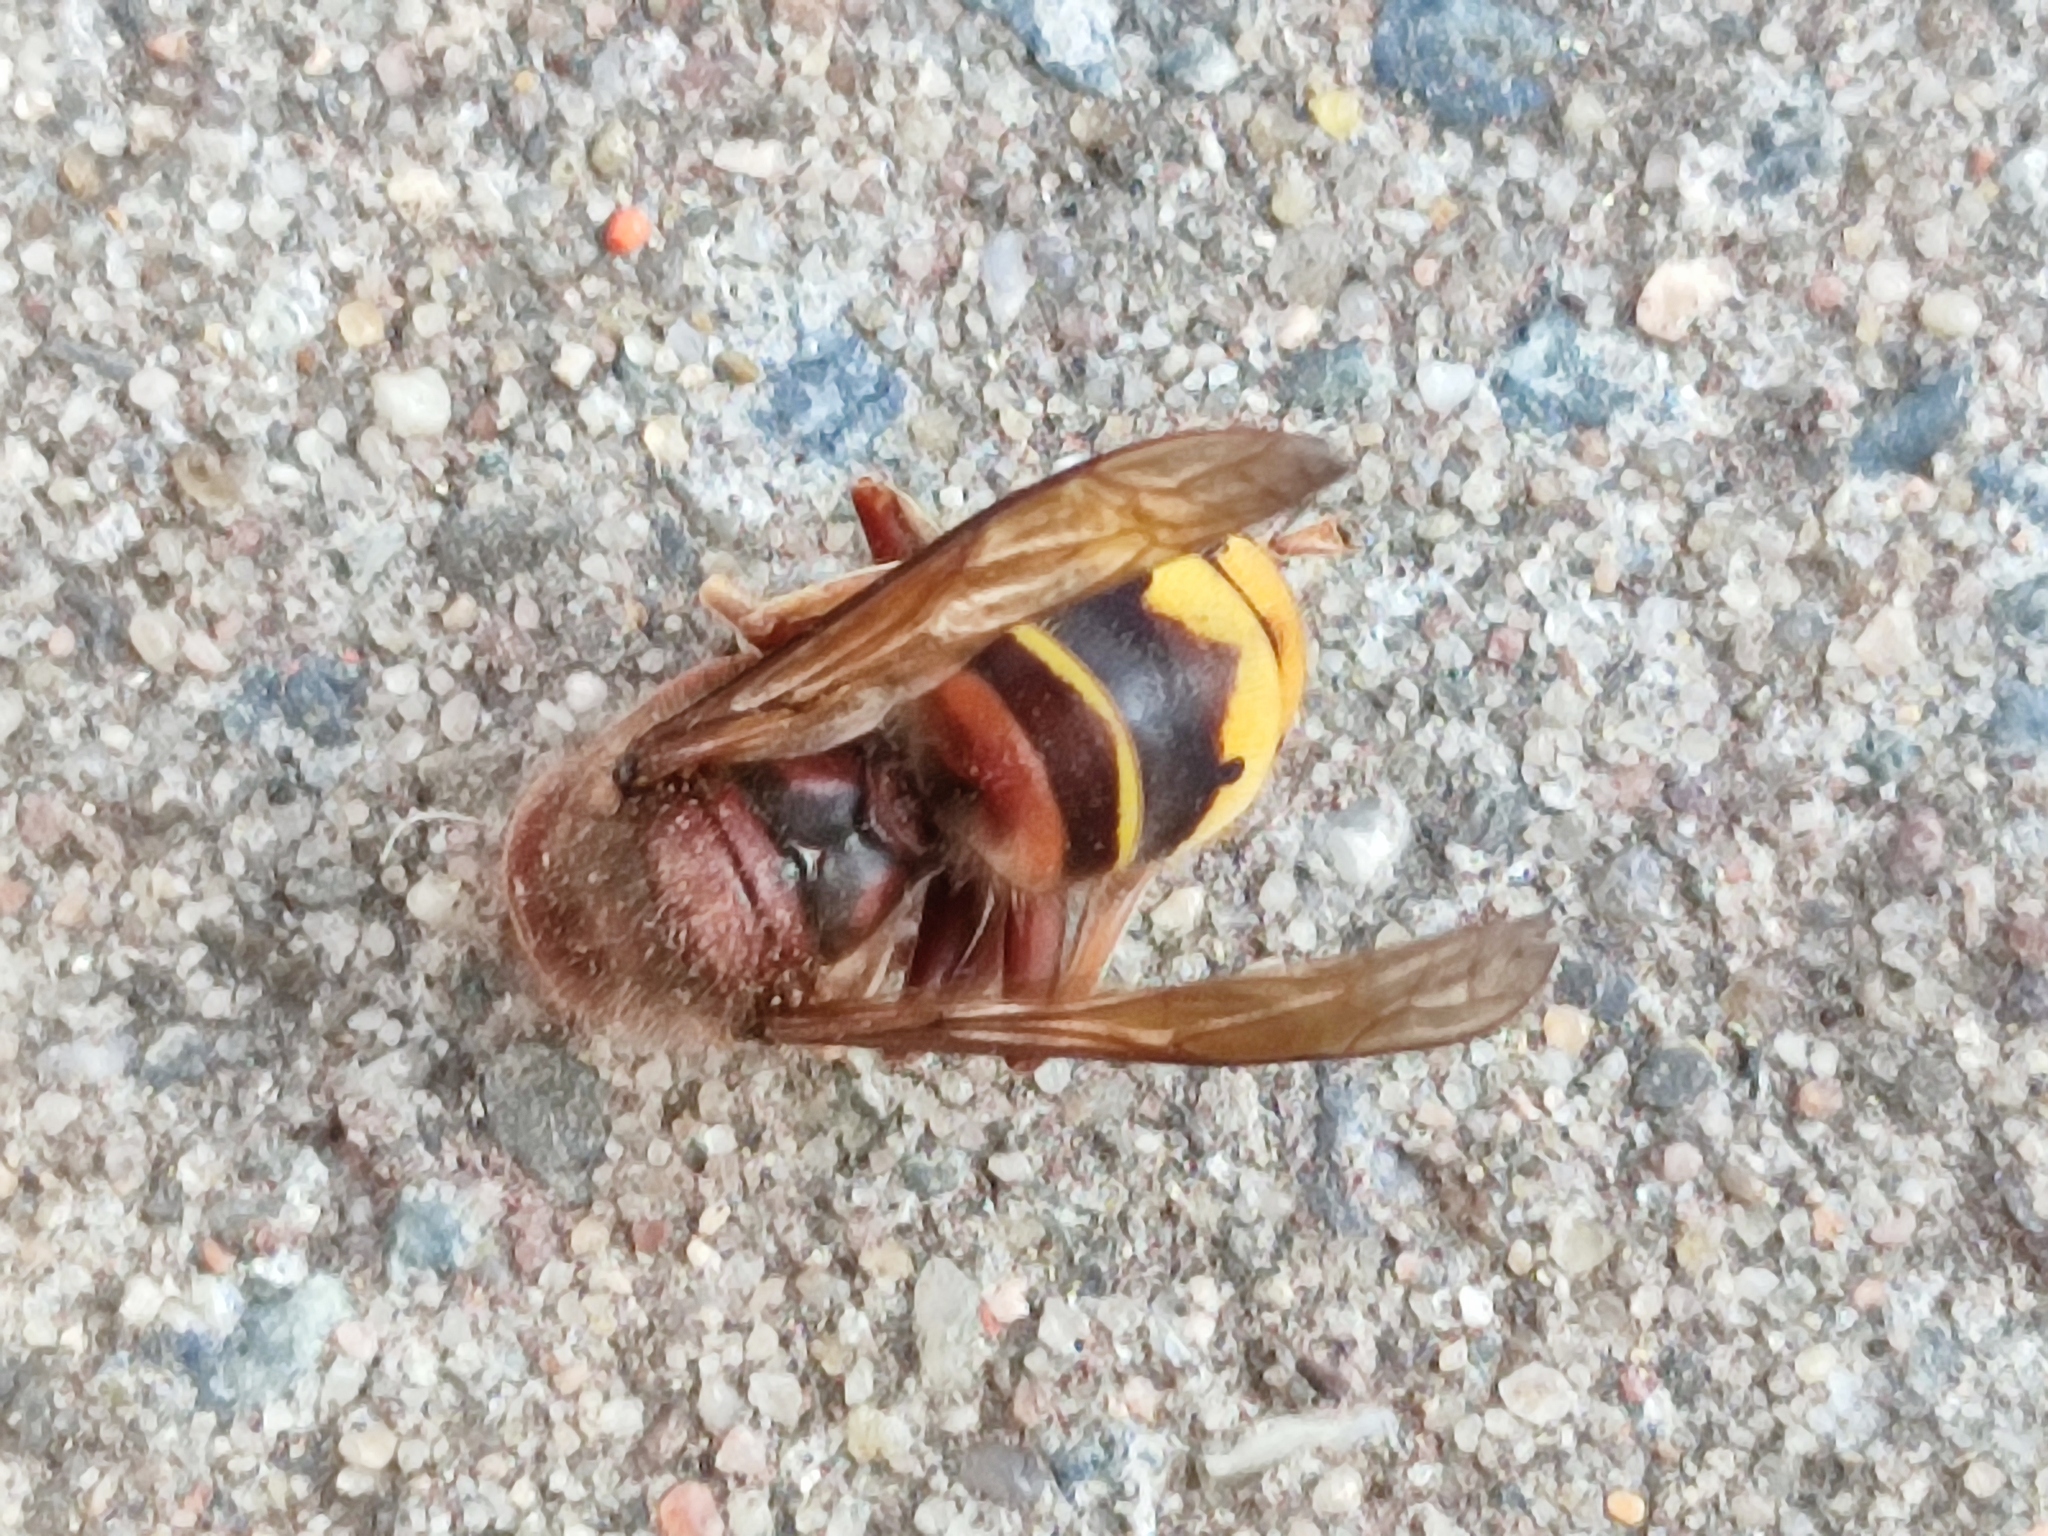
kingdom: Animalia
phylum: Arthropoda
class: Insecta
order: Hymenoptera
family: Vespidae
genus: Vespa
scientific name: Vespa crabro
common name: Hornet
